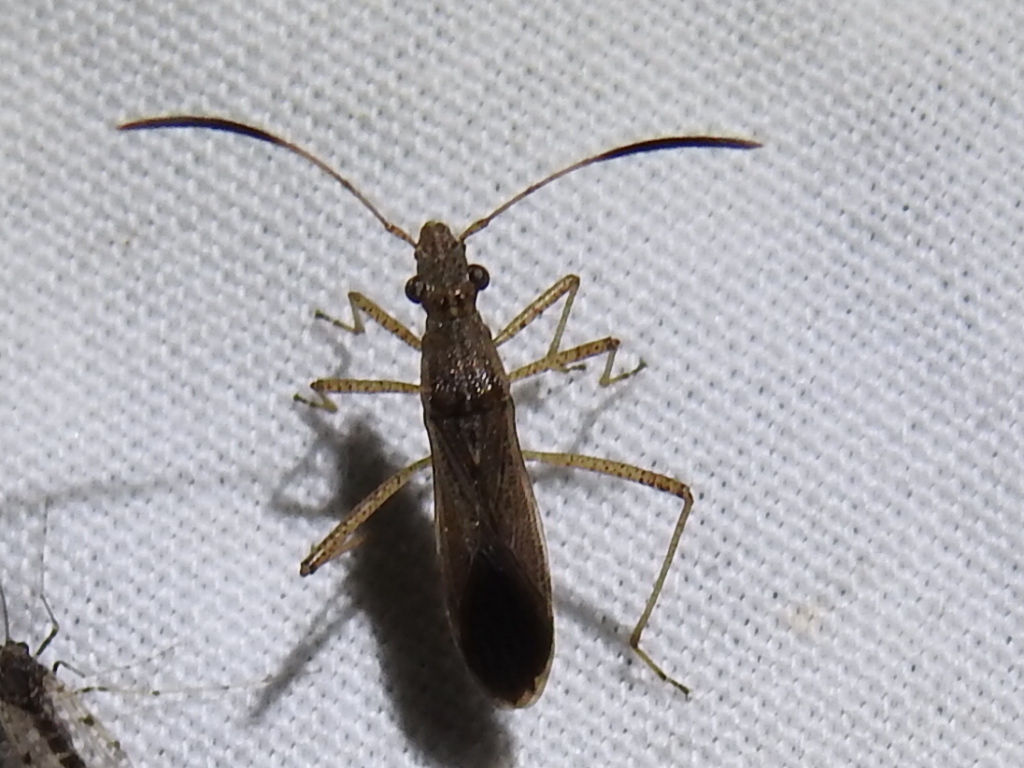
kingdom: Animalia
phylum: Arthropoda
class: Insecta
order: Hemiptera
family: Alydidae
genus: Esperanza
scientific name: Esperanza texana
